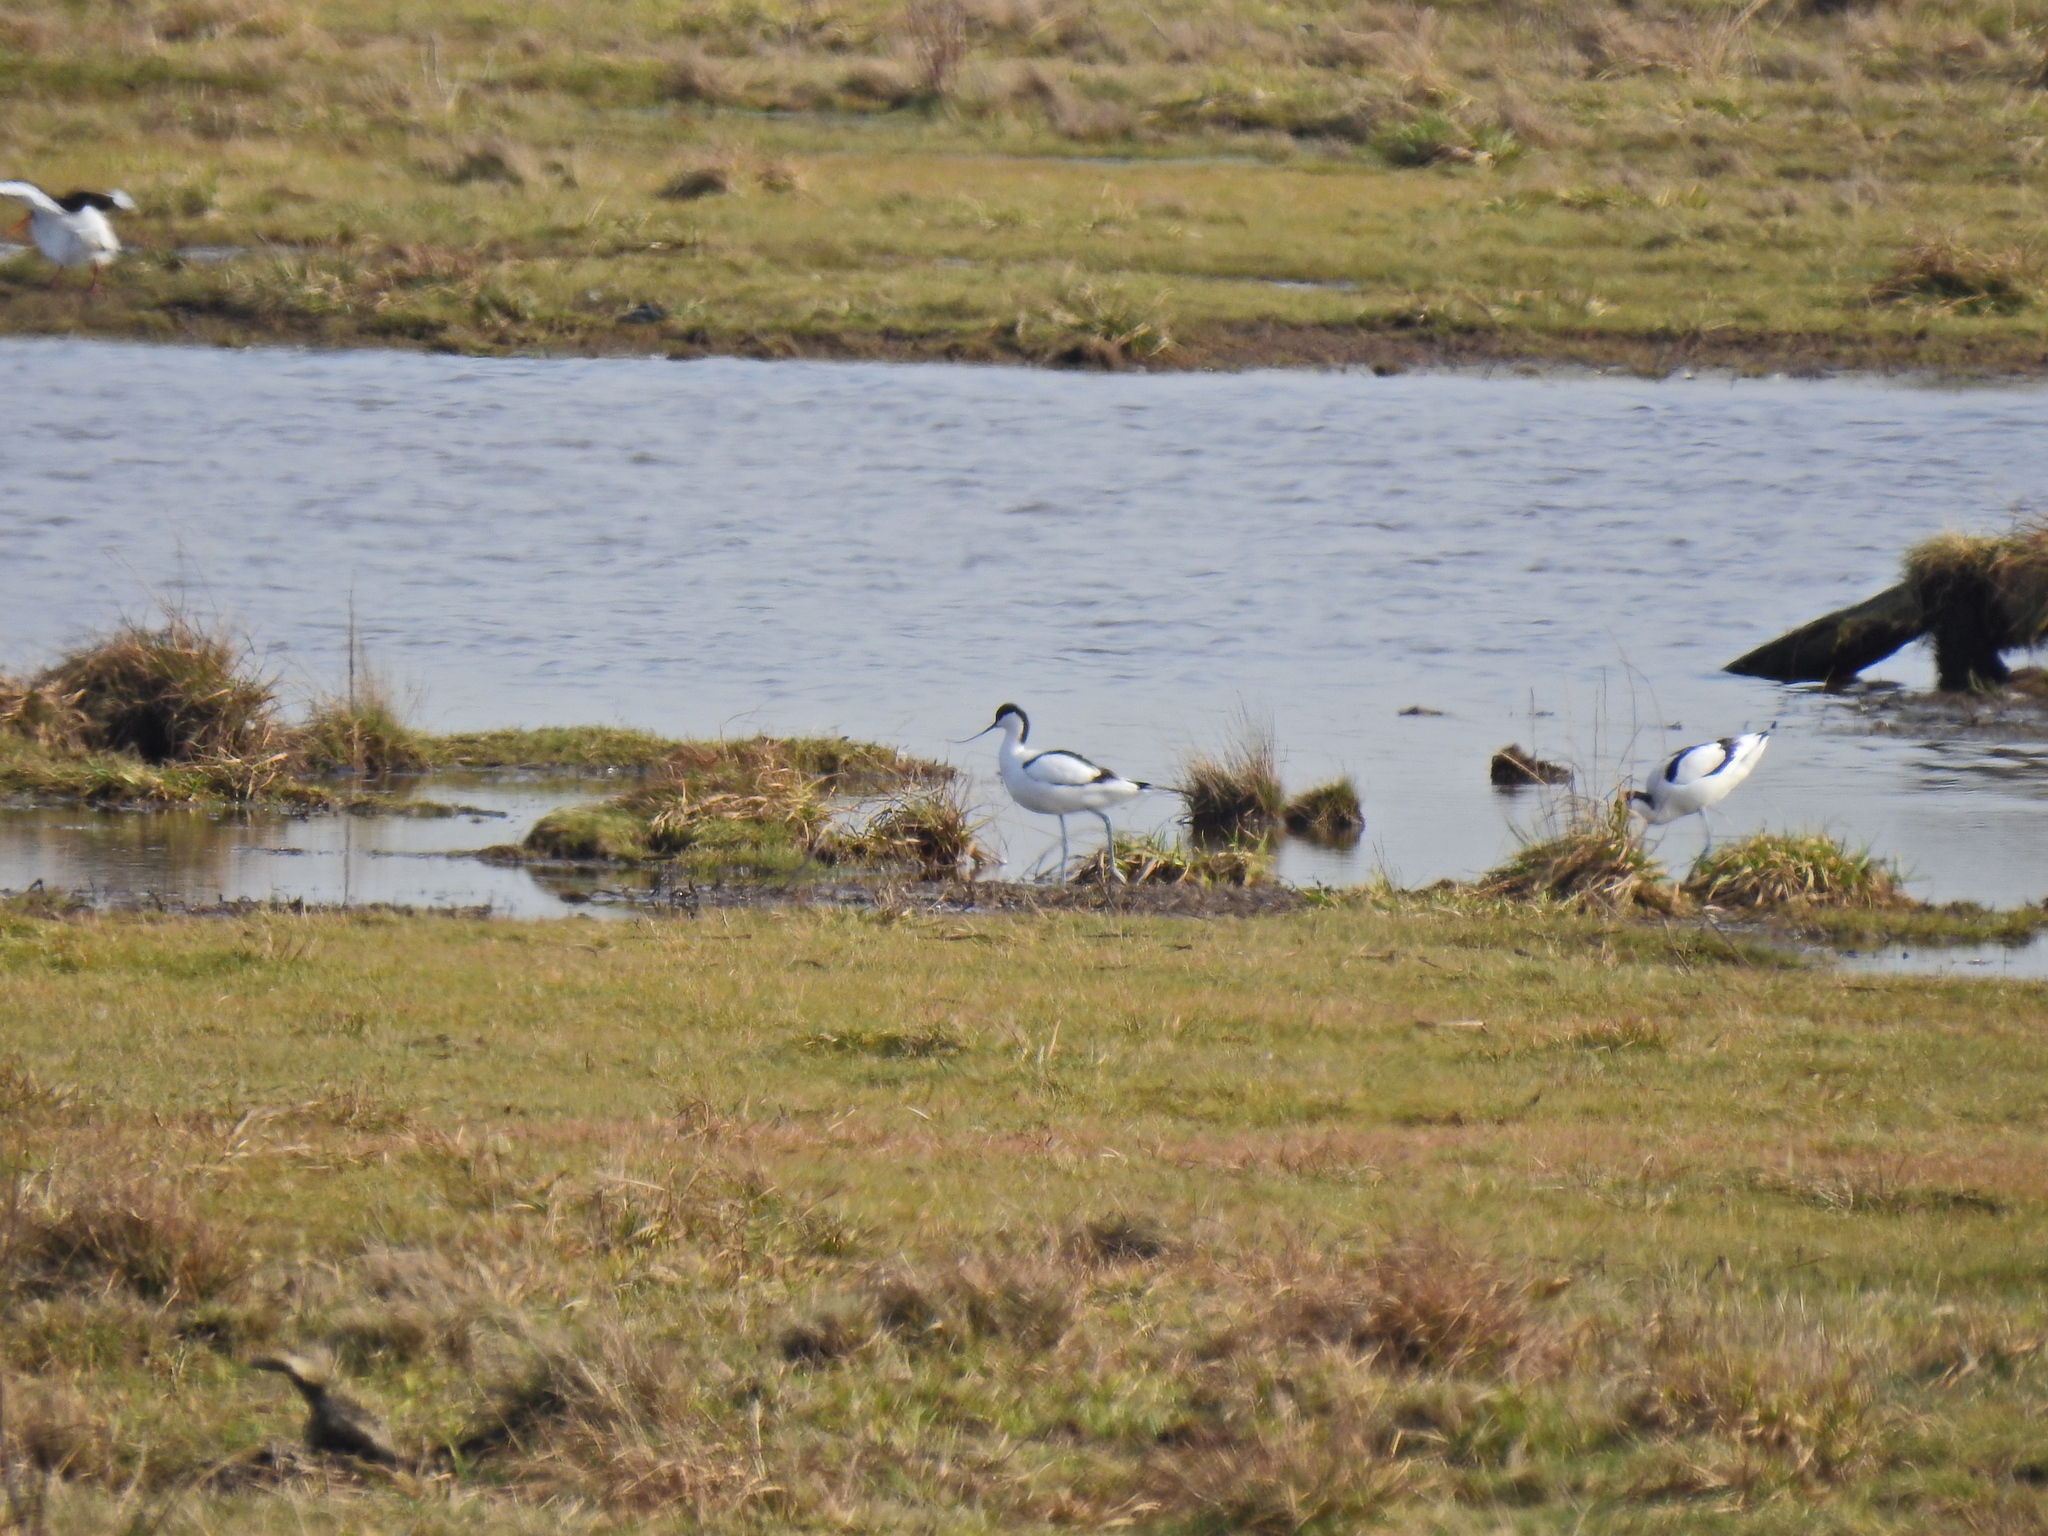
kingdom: Animalia
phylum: Chordata
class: Aves
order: Charadriiformes
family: Recurvirostridae
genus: Recurvirostra
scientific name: Recurvirostra avosetta
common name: Pied avocet
